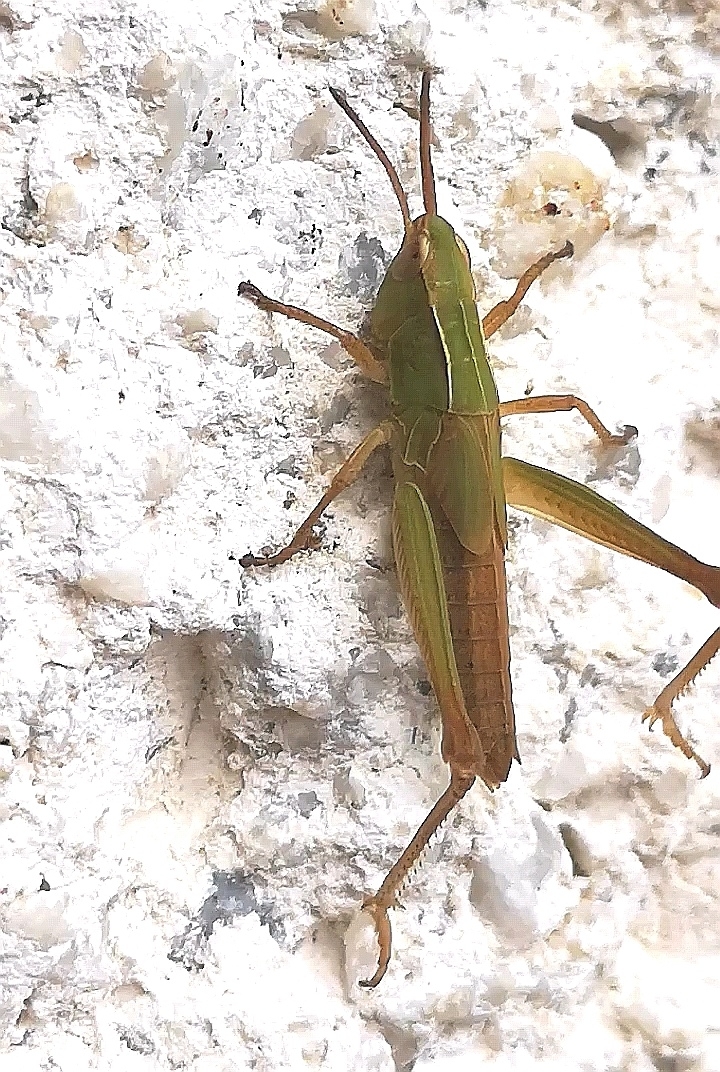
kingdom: Animalia
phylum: Arthropoda
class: Insecta
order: Orthoptera
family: Acrididae
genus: Chorthippus
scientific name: Chorthippus albomarginatus
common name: Lesser marsh grasshopper
